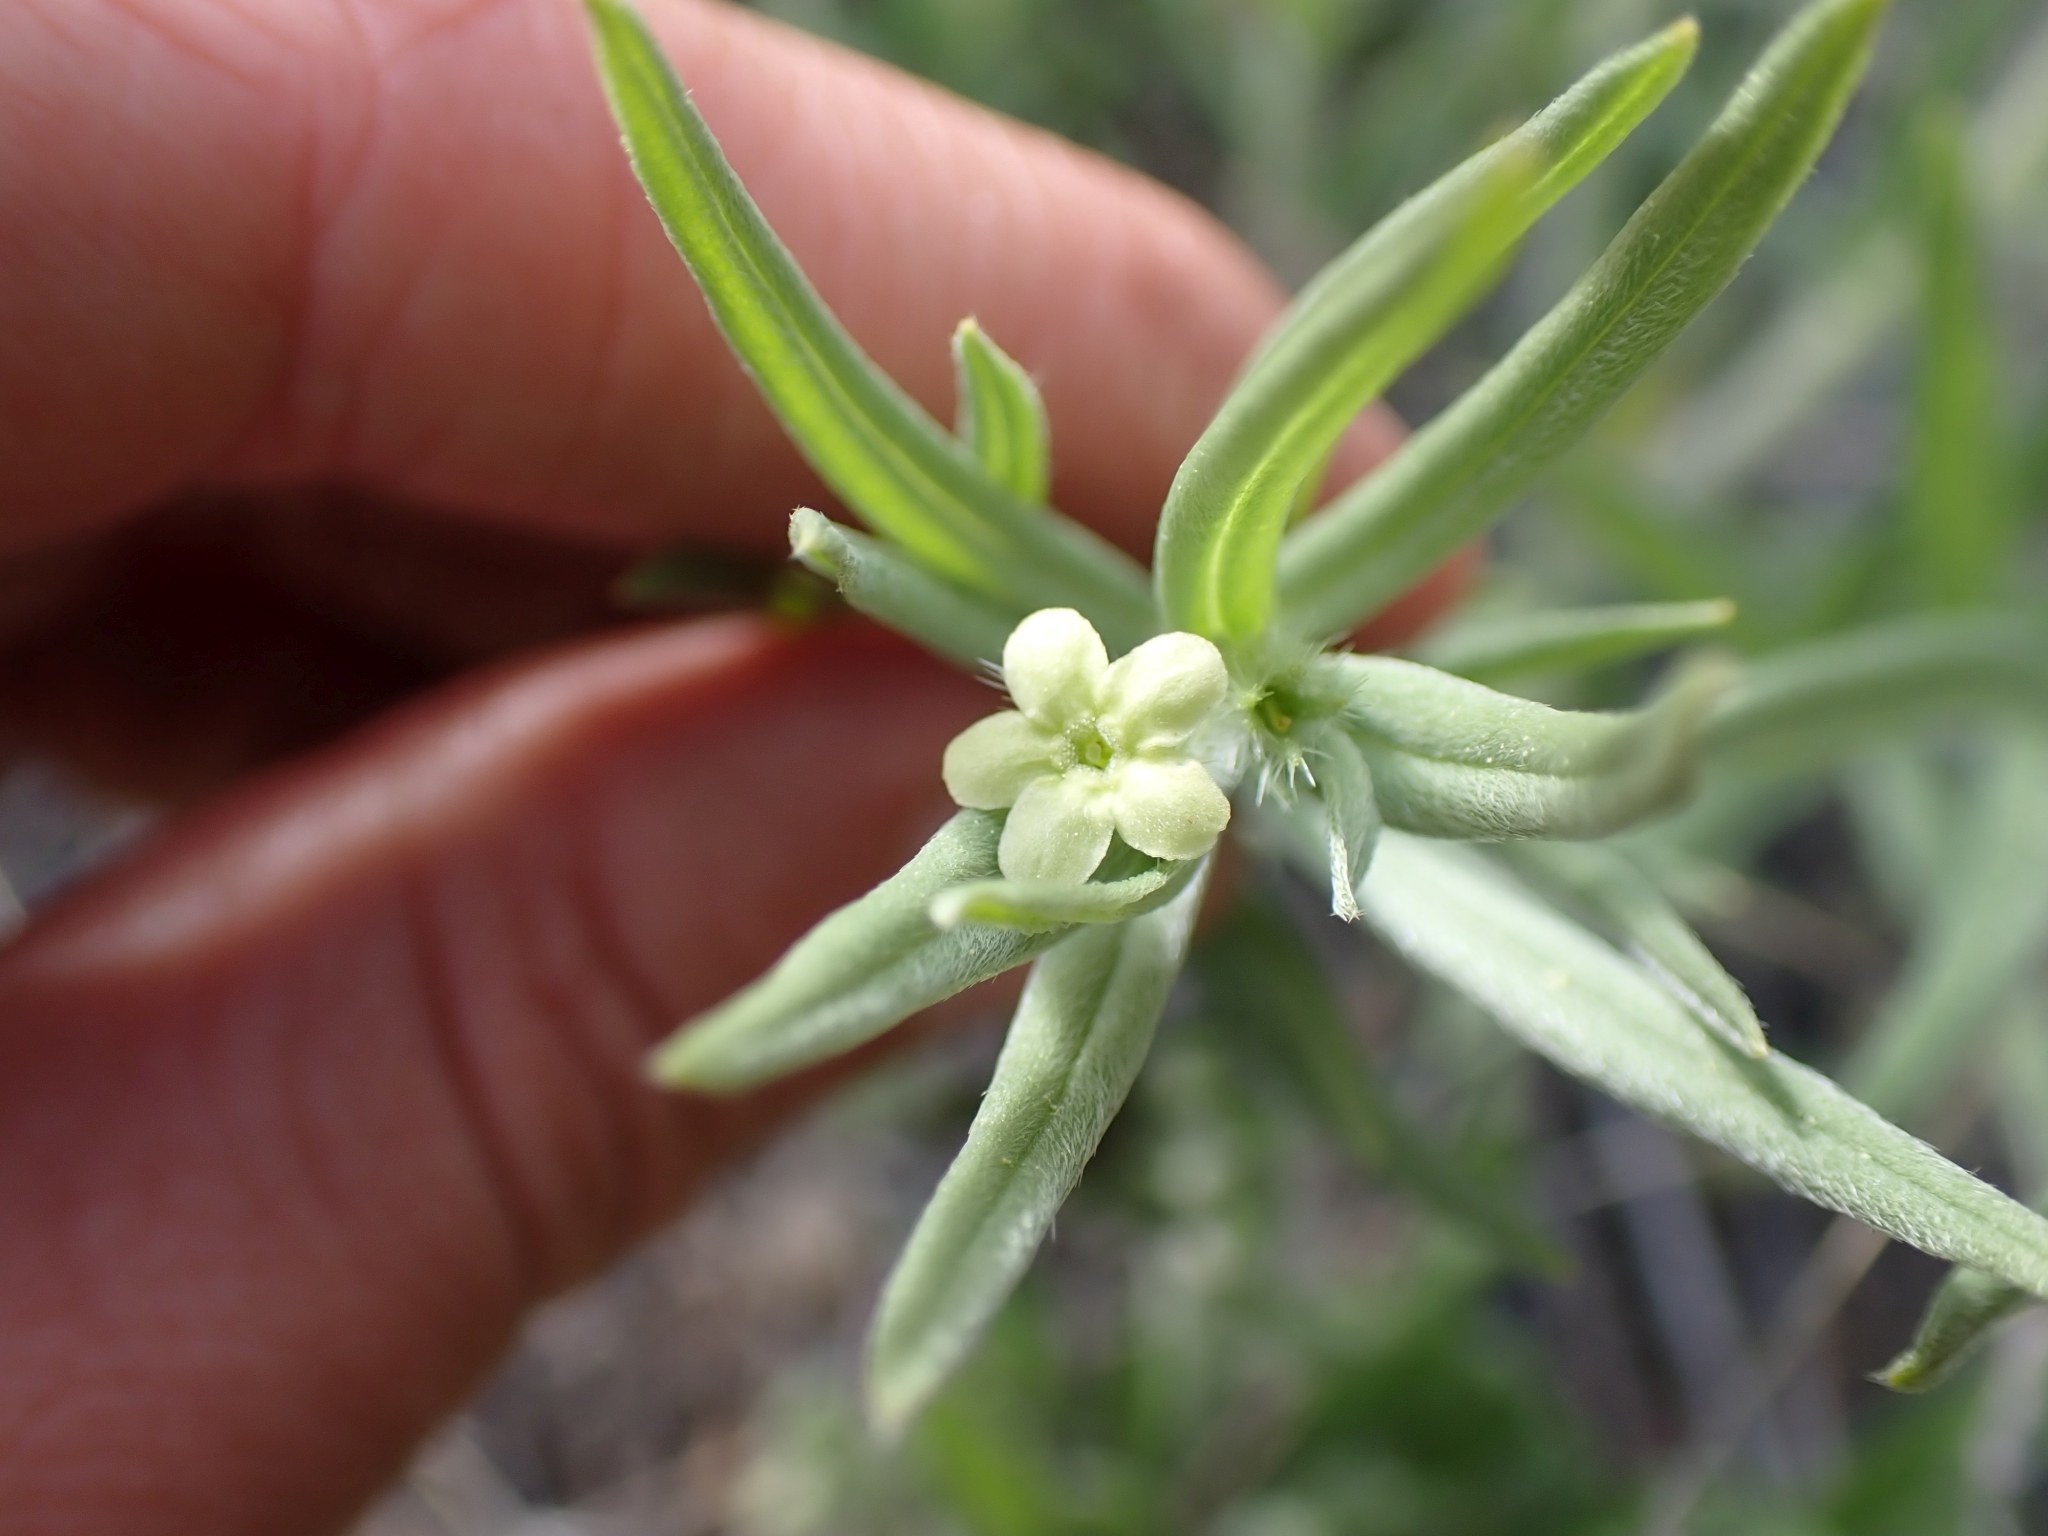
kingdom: Plantae
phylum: Tracheophyta
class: Magnoliopsida
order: Boraginales
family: Boraginaceae
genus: Lithospermum
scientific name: Lithospermum ruderale
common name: Western gromwell
